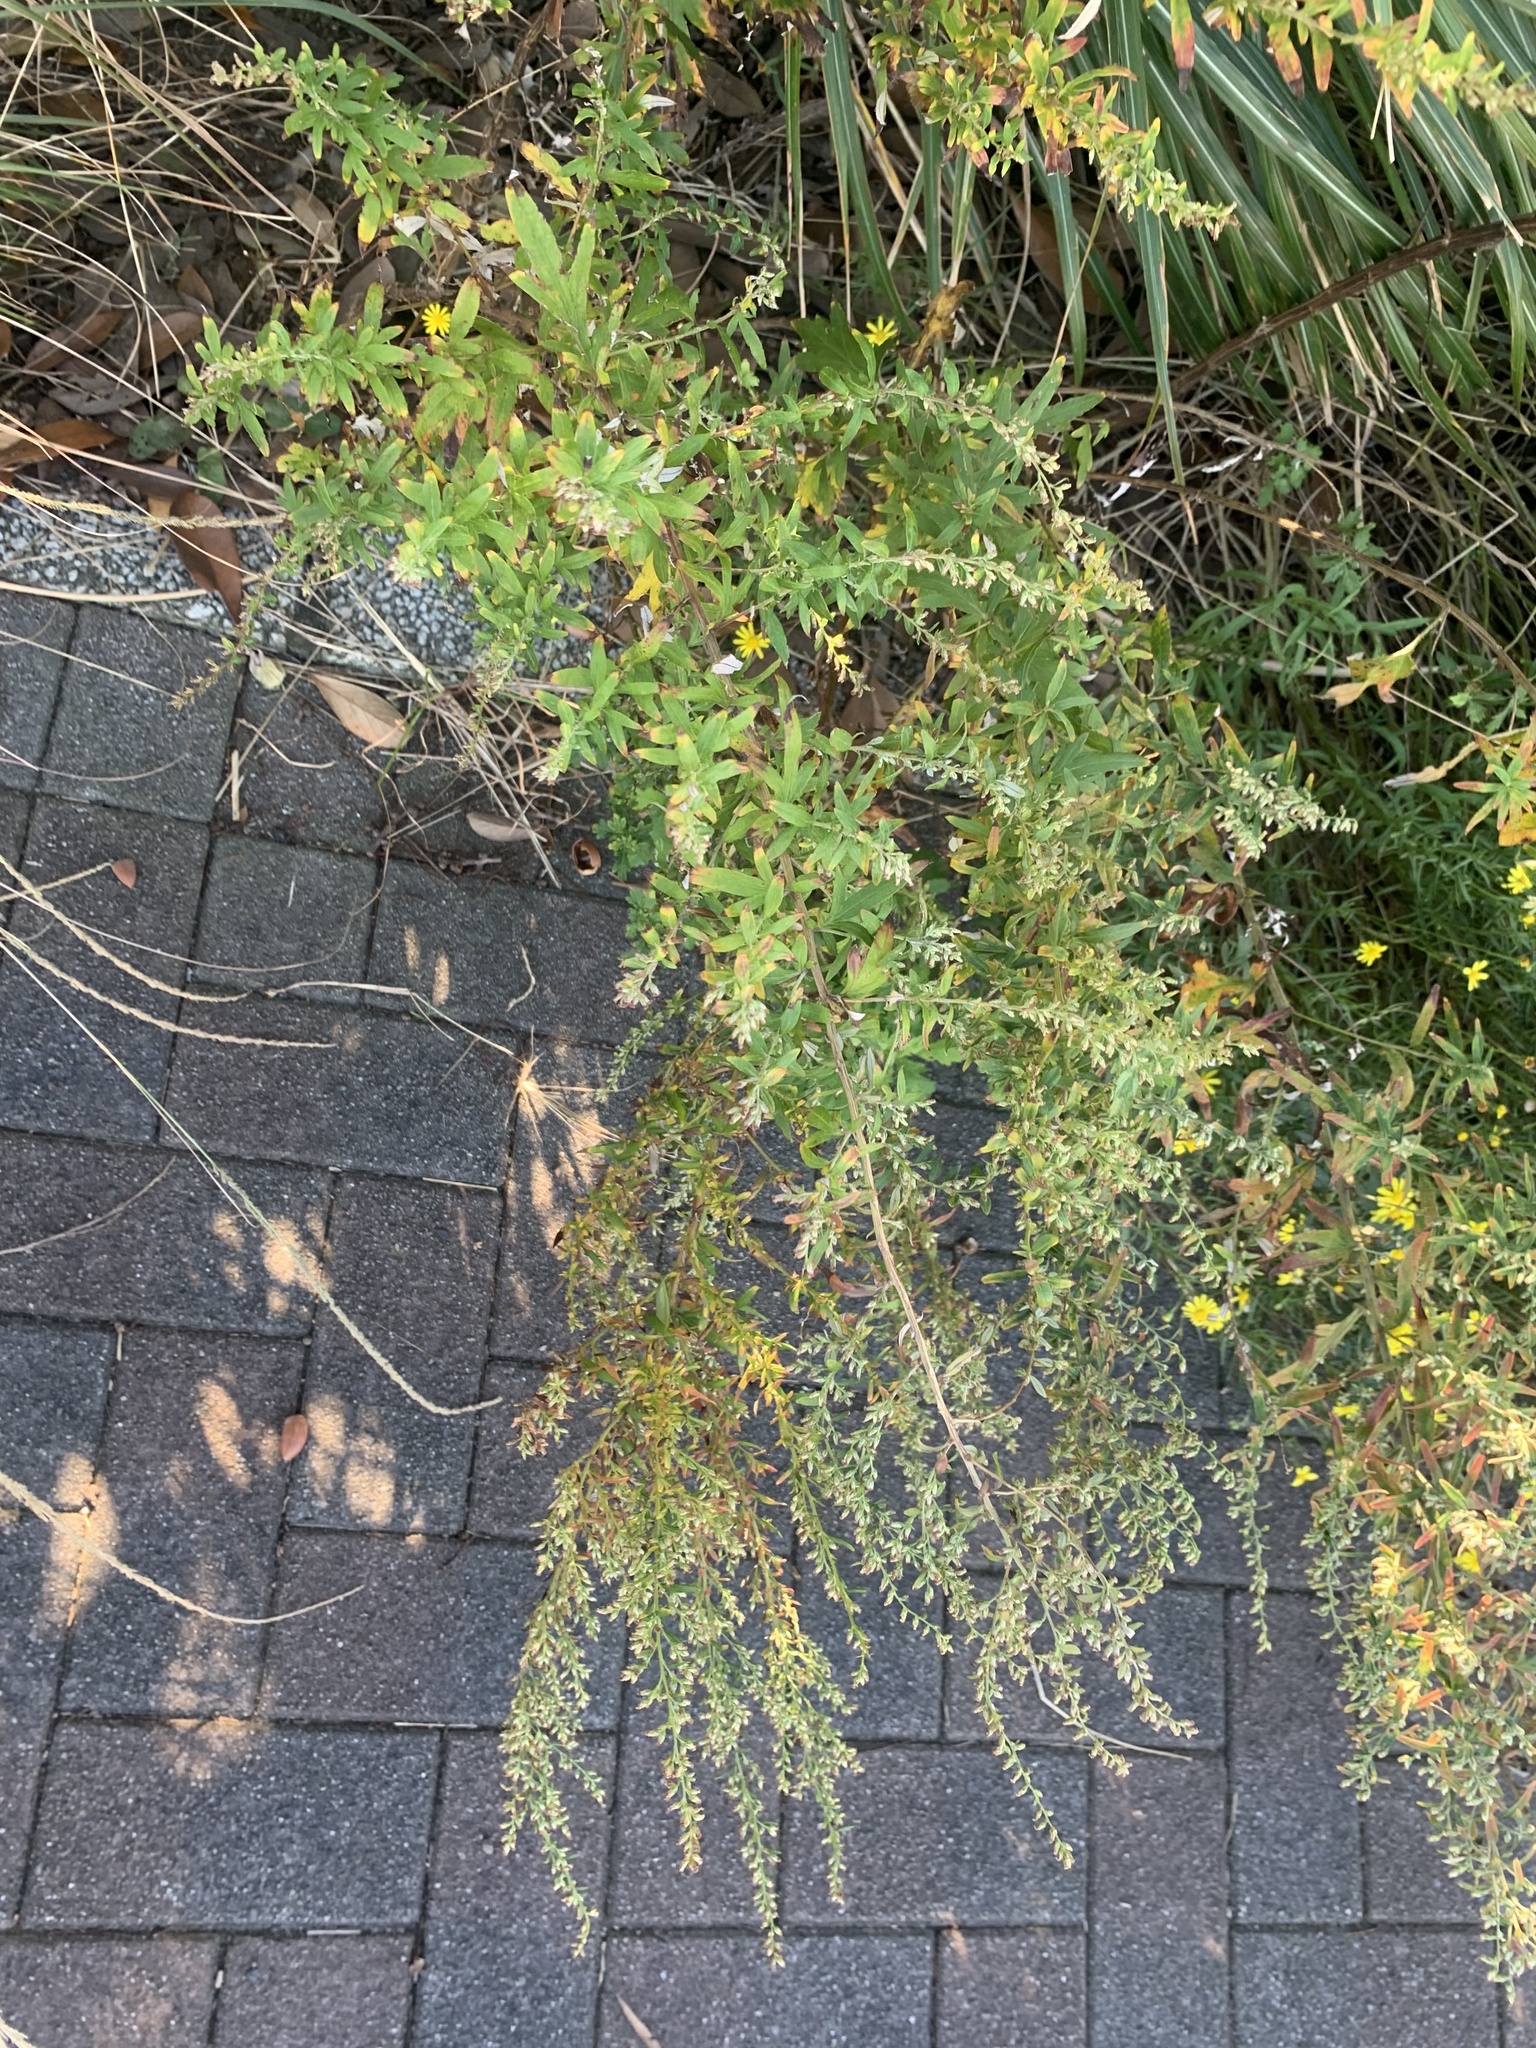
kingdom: Plantae
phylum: Tracheophyta
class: Magnoliopsida
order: Asterales
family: Asteraceae
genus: Artemisia
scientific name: Artemisia princeps
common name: Japanese mugwort
